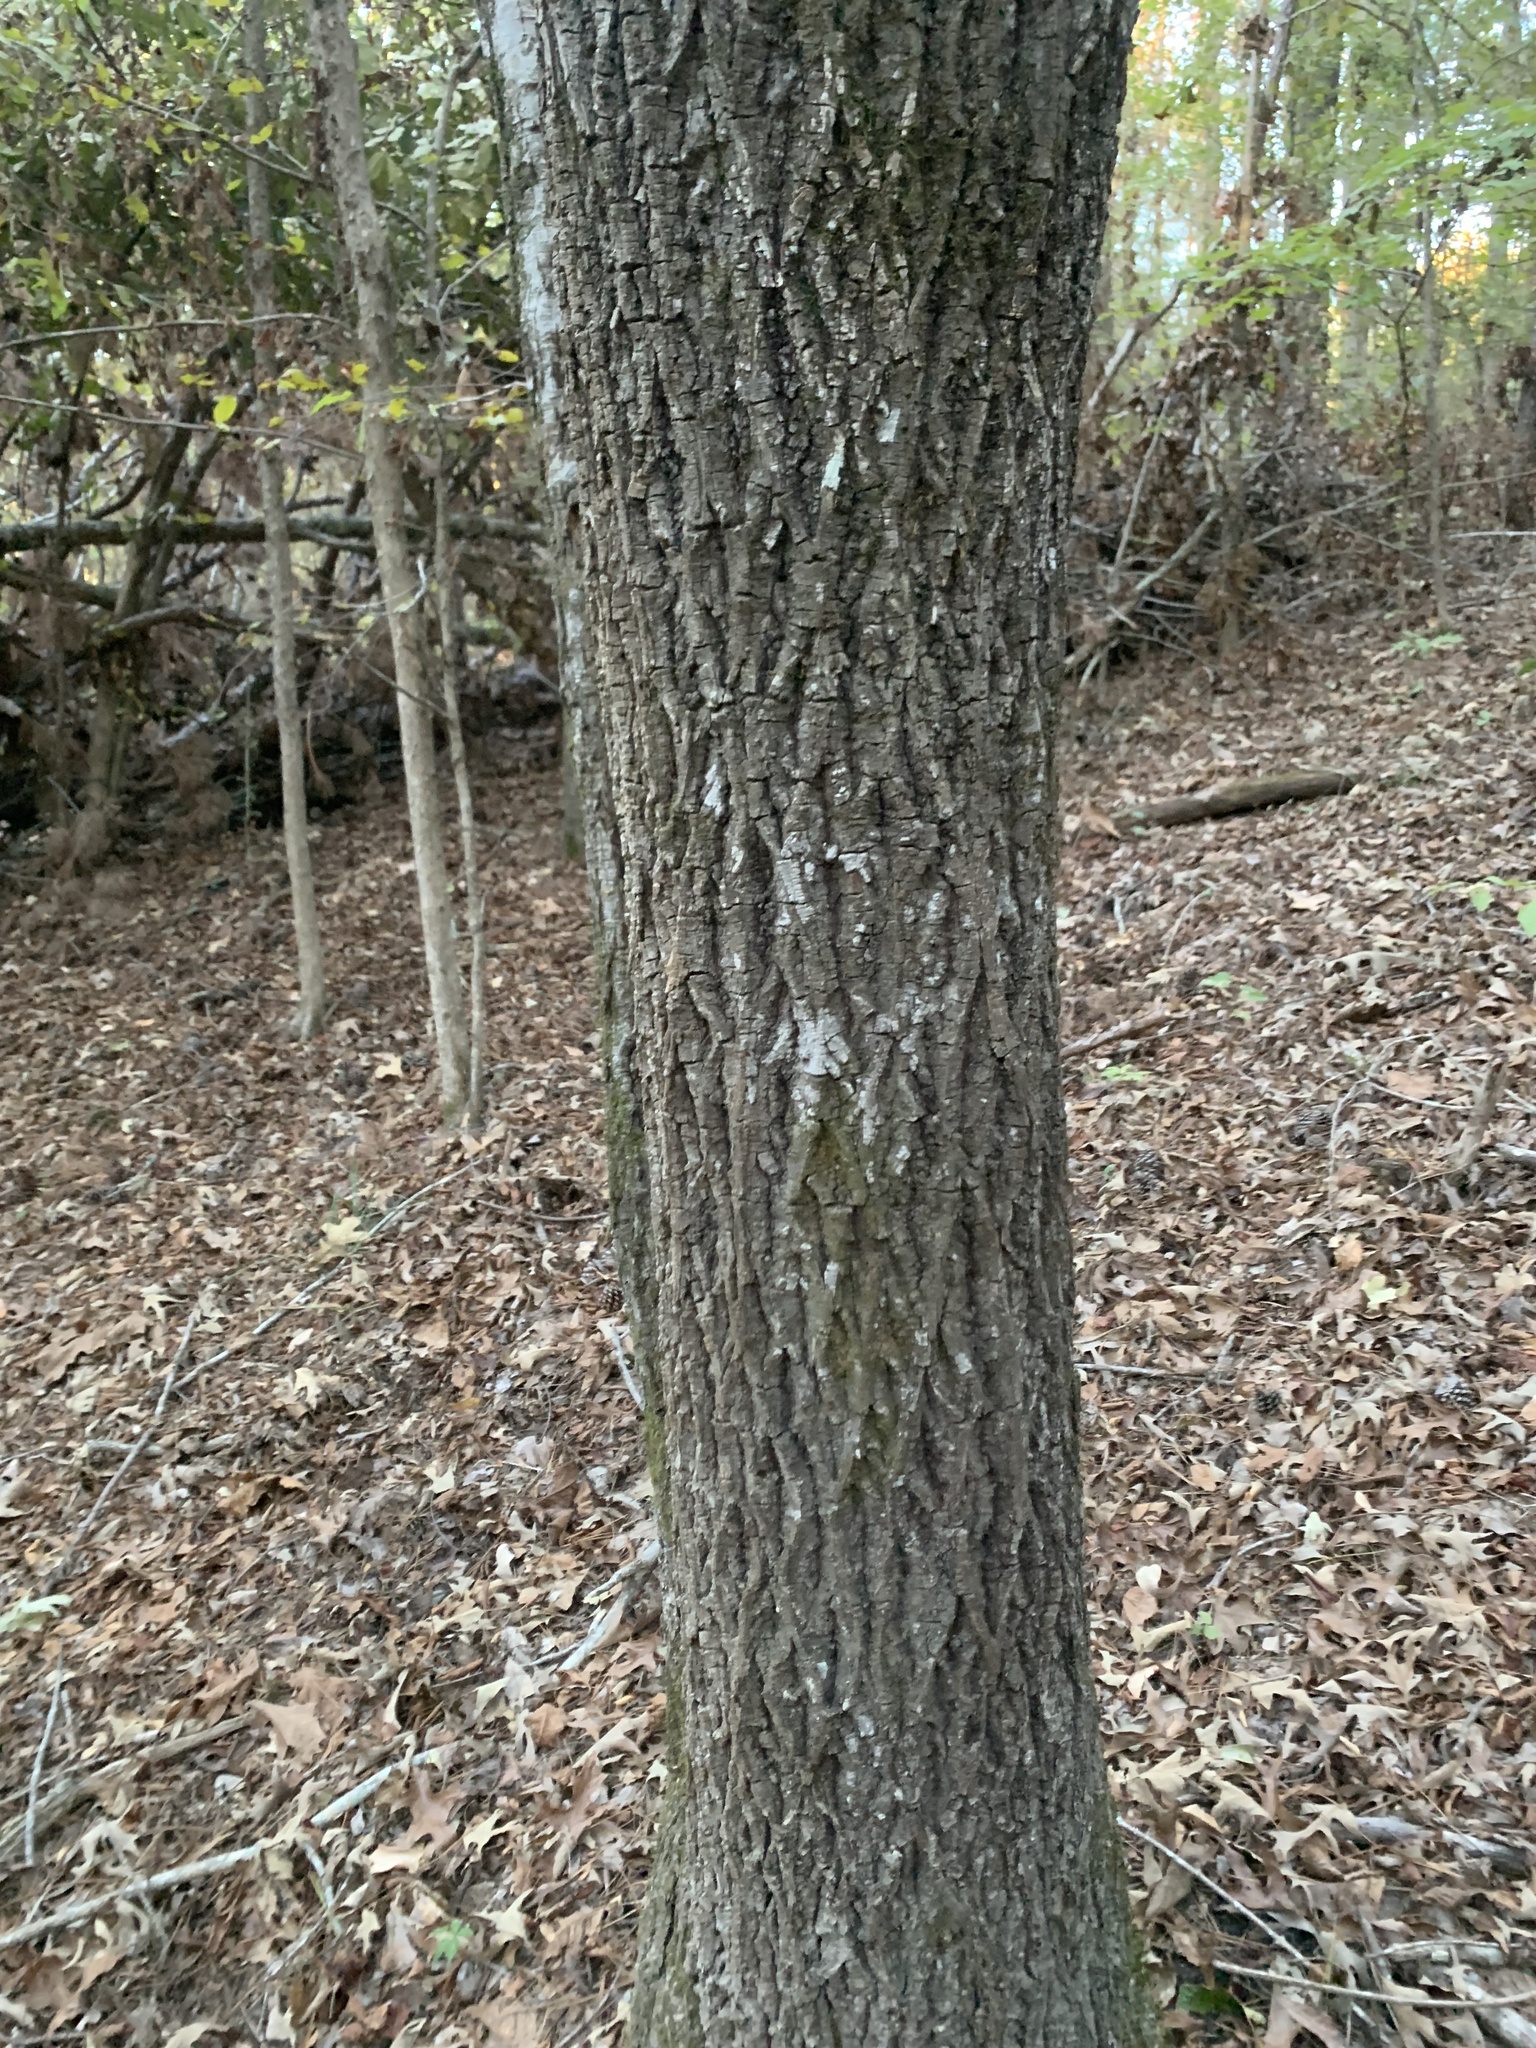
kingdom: Plantae
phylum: Tracheophyta
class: Magnoliopsida
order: Fagales
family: Juglandaceae
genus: Carya
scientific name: Carya alba
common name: Mockernut hickory
